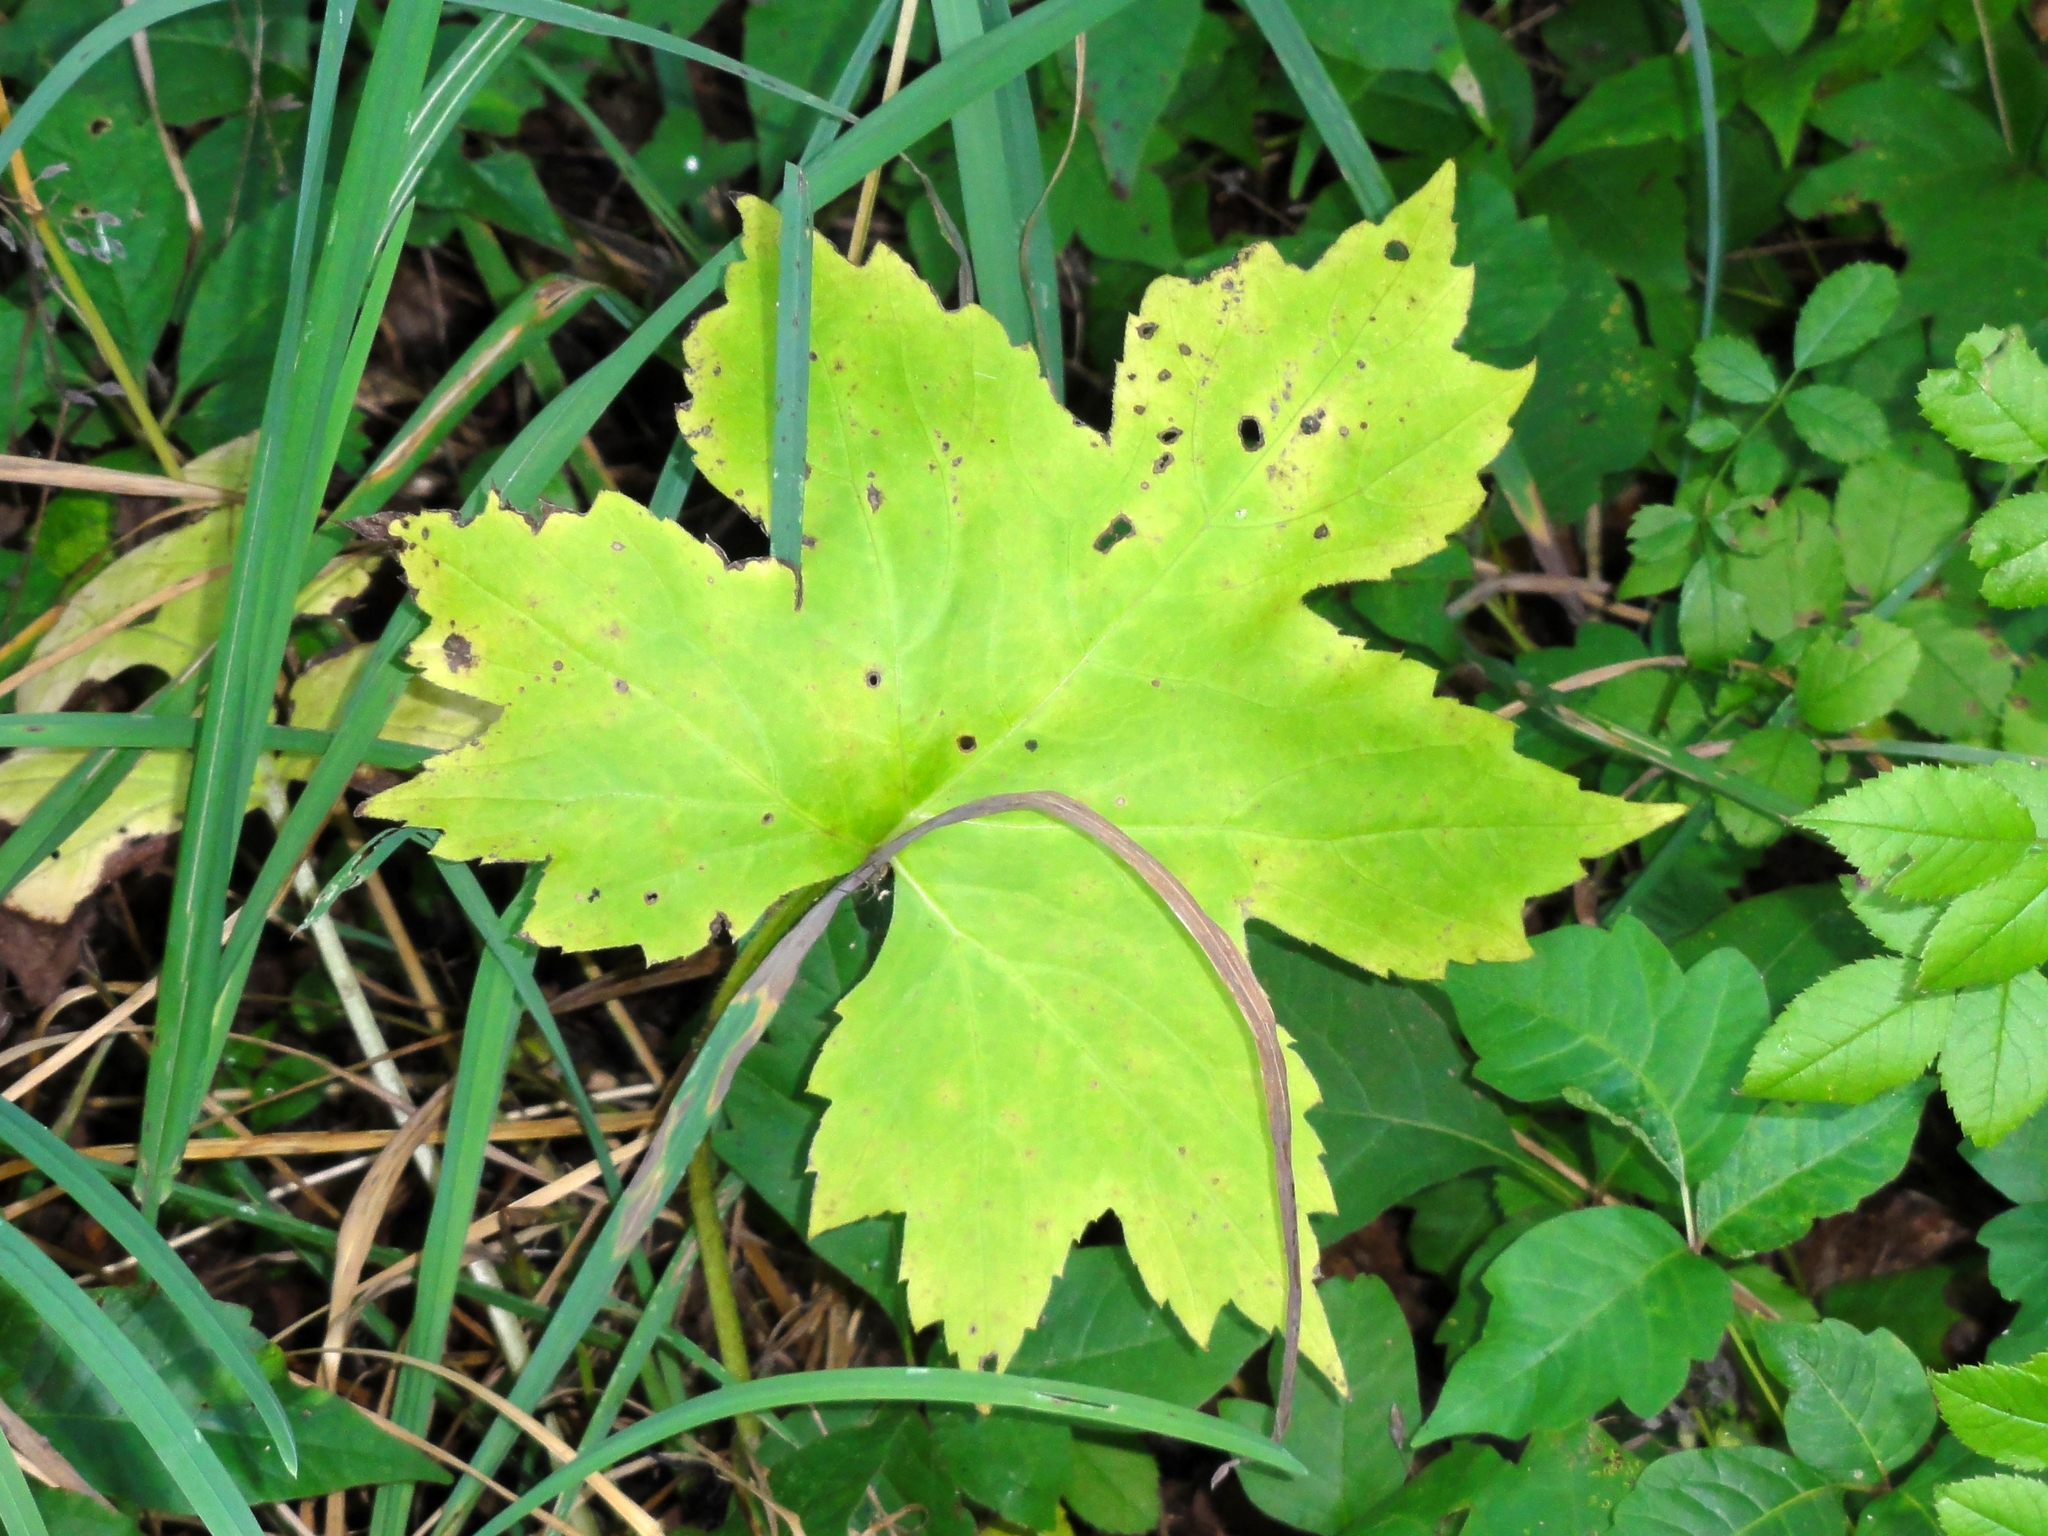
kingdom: Plantae
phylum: Tracheophyta
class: Magnoliopsida
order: Boraginales
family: Hydrophyllaceae
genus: Hydrophyllum
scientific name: Hydrophyllum canadense
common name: Canada waterleaf
